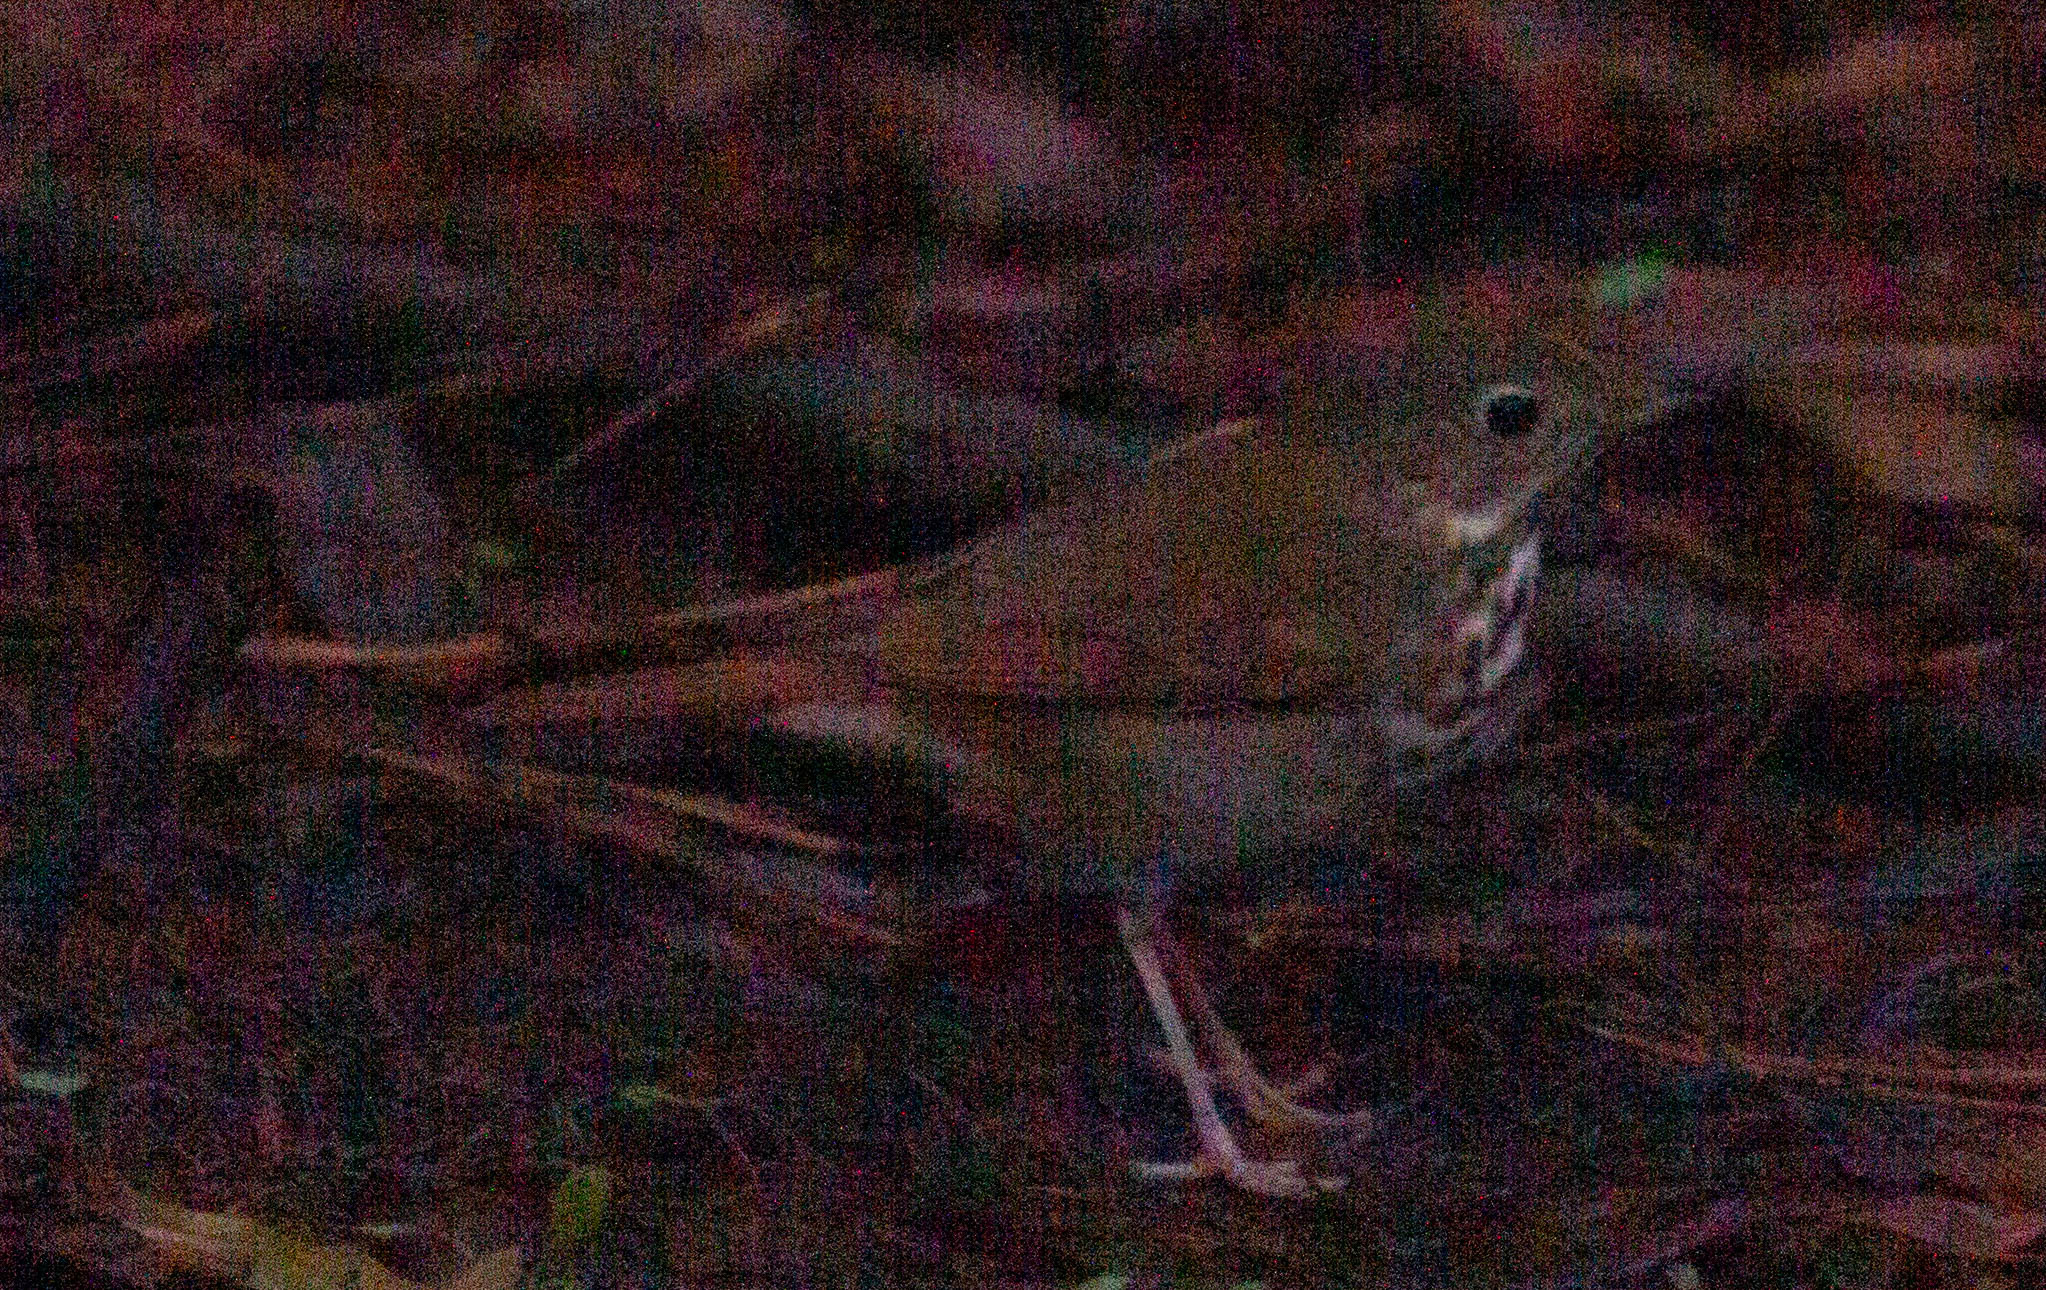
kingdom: Animalia
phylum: Chordata
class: Aves
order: Passeriformes
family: Turdidae
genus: Catharus
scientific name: Catharus guttatus
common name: Hermit thrush
